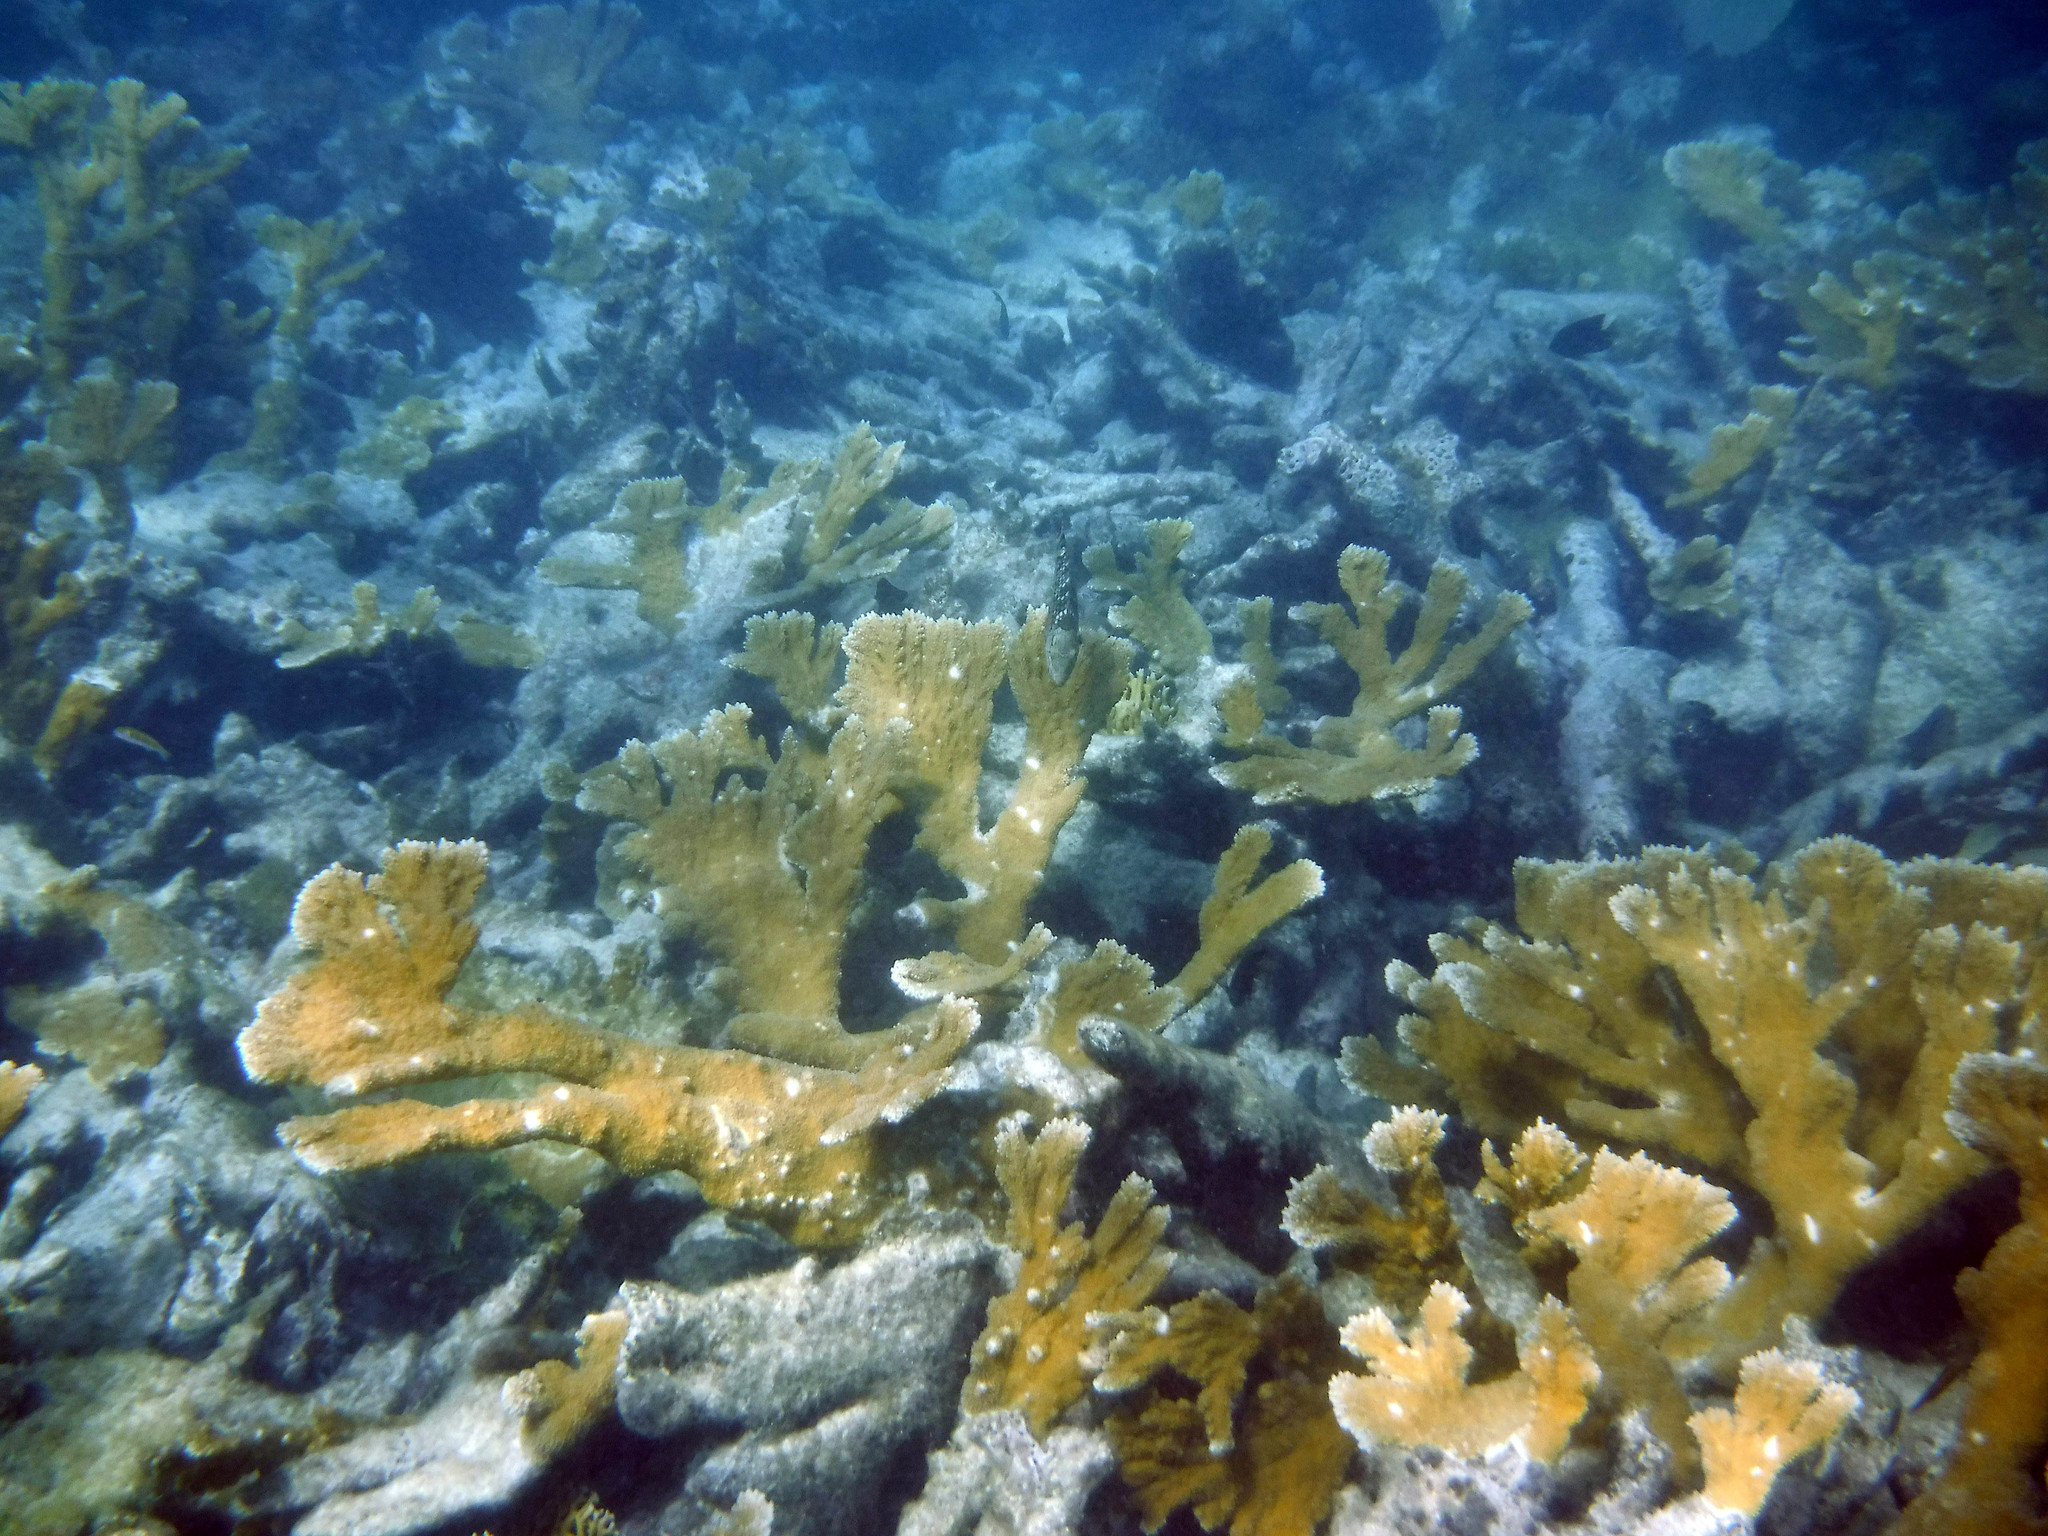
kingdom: Animalia
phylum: Cnidaria
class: Anthozoa
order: Scleractinia
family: Acroporidae
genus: Acropora
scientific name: Acropora palmata
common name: Elkhorn coral
